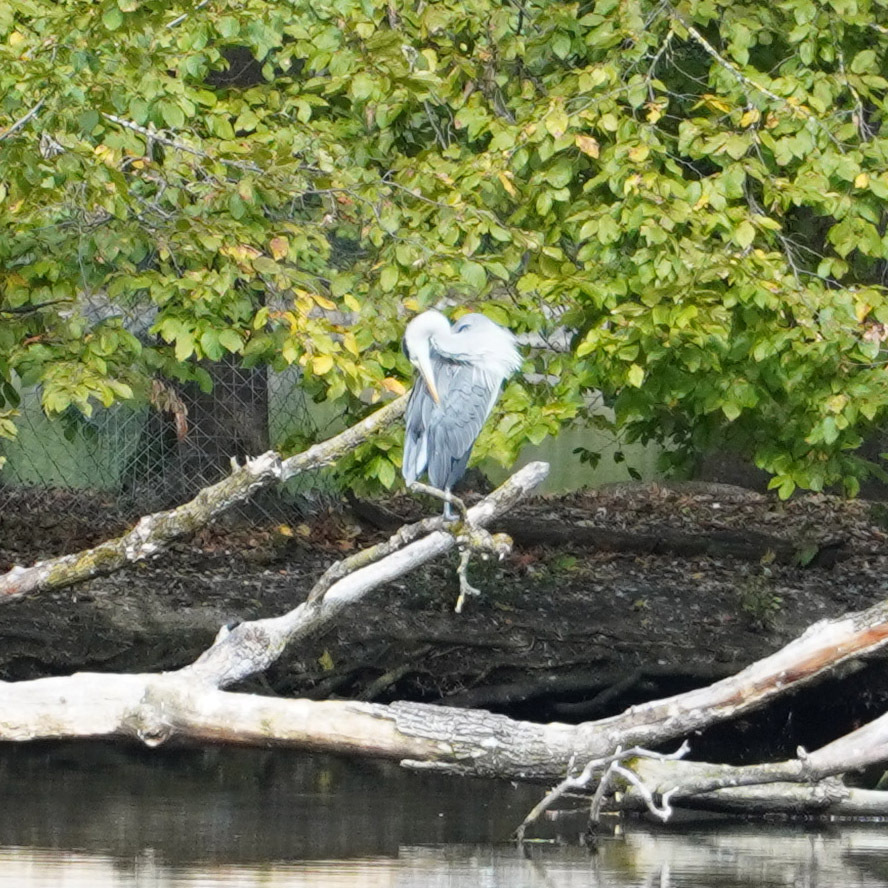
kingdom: Animalia
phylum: Chordata
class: Aves
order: Pelecaniformes
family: Ardeidae
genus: Ardea
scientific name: Ardea cinerea
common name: Grey heron
